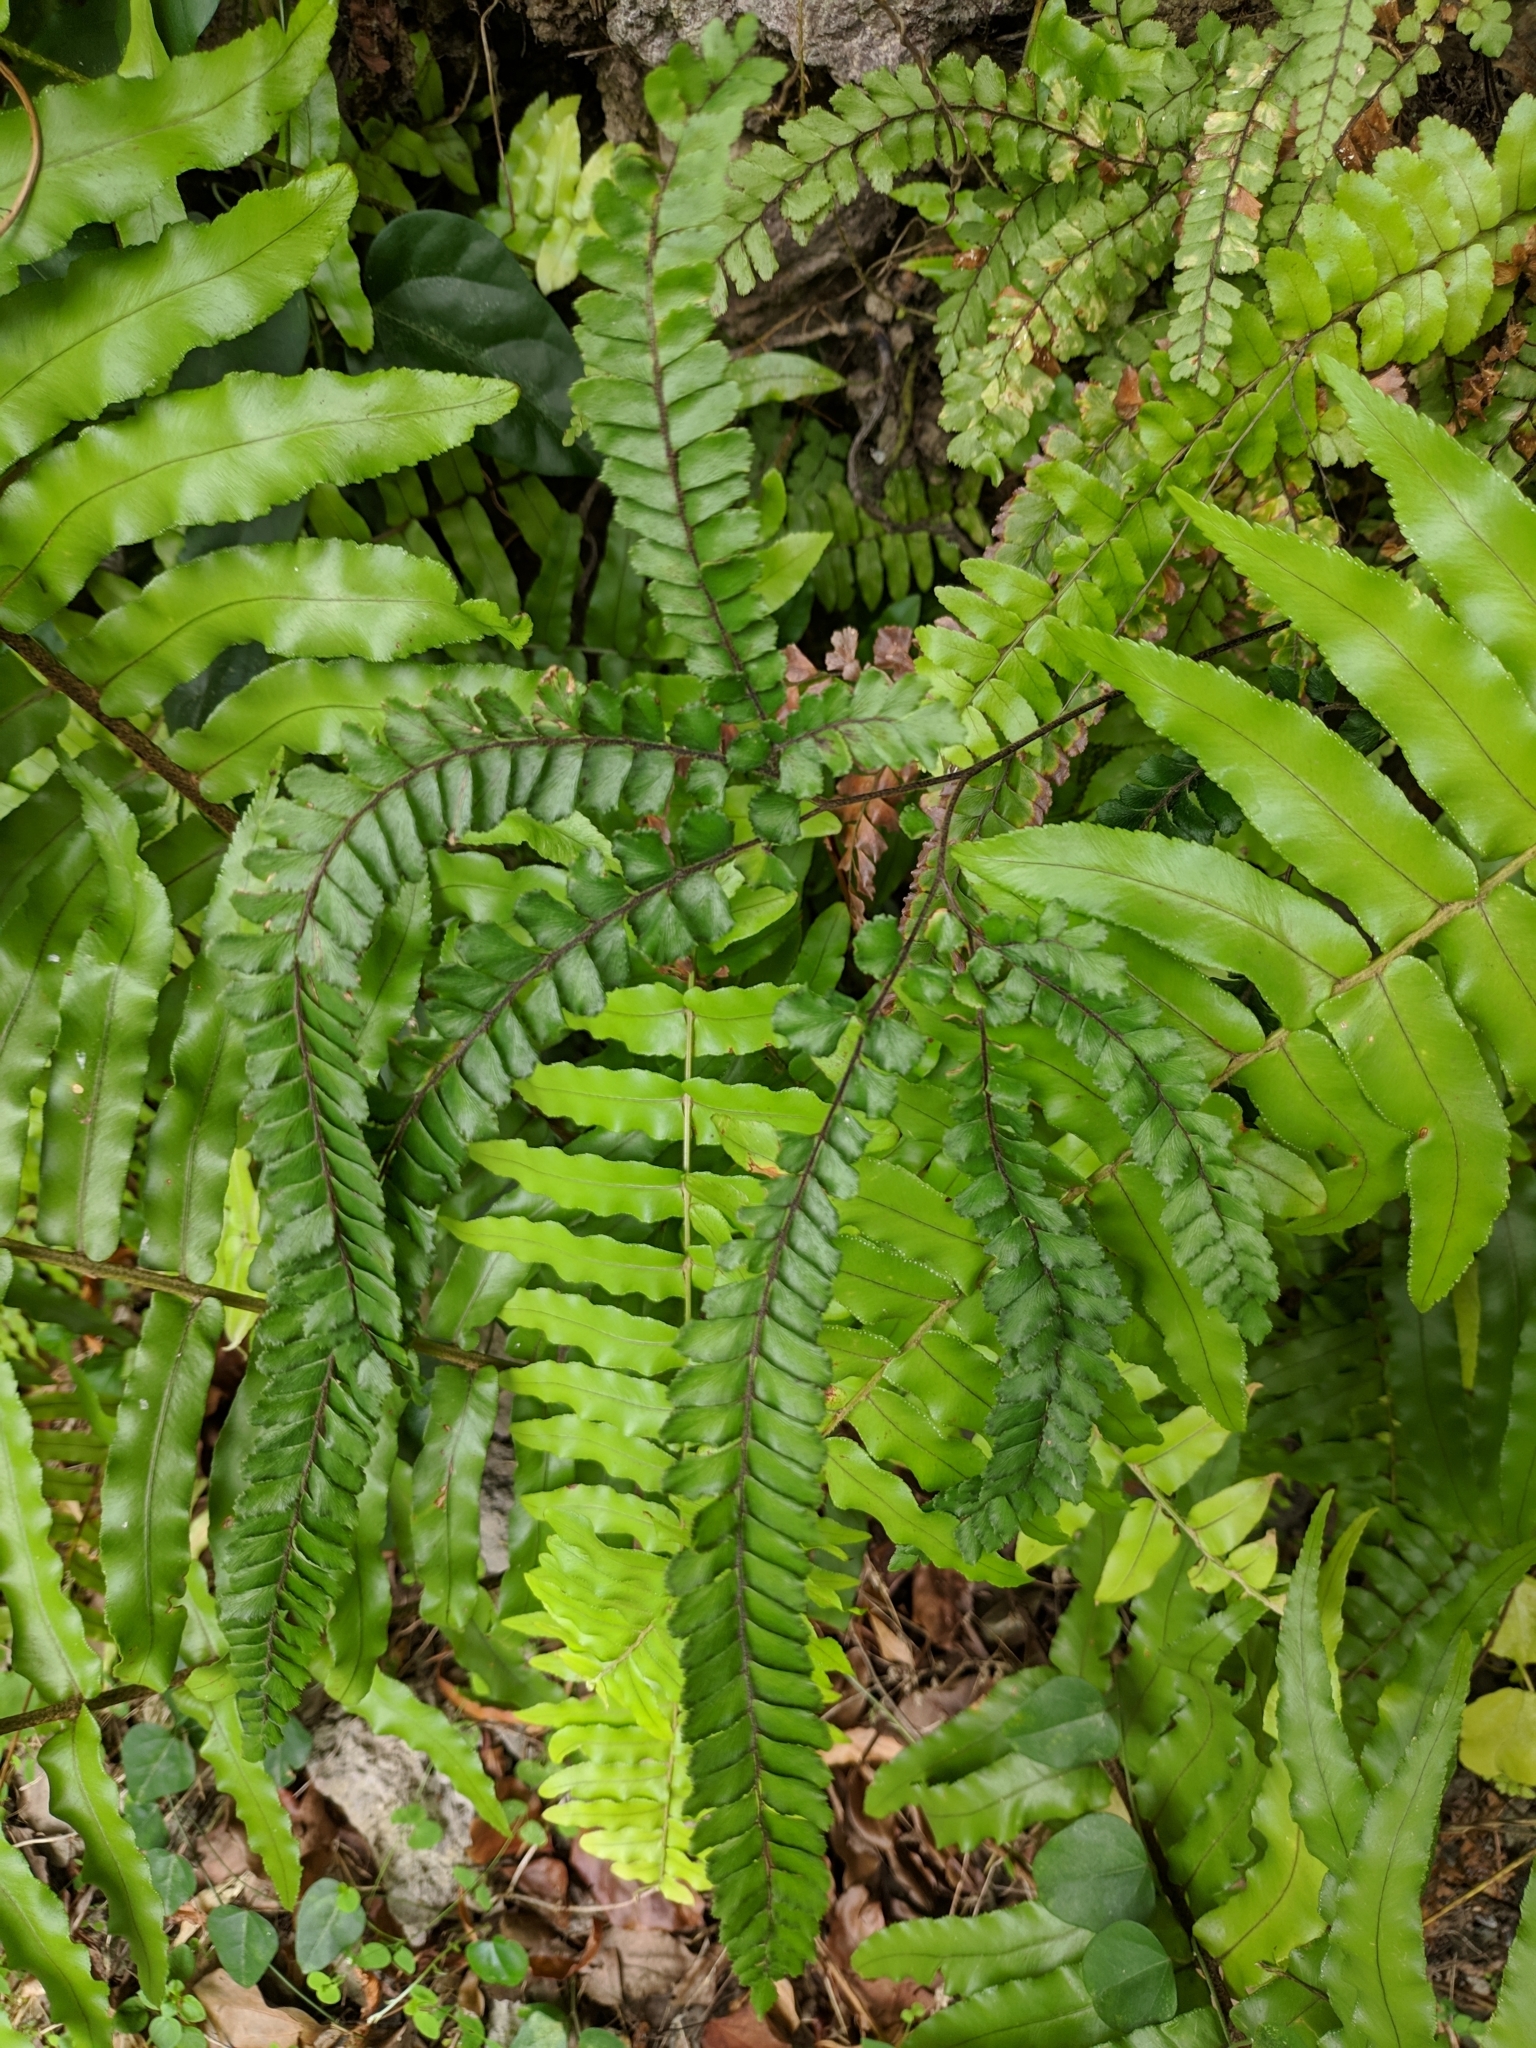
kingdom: Plantae
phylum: Tracheophyta
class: Polypodiopsida
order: Polypodiales
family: Pteridaceae
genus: Adiantum
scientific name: Adiantum hispidulum
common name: Rough maidenhair
